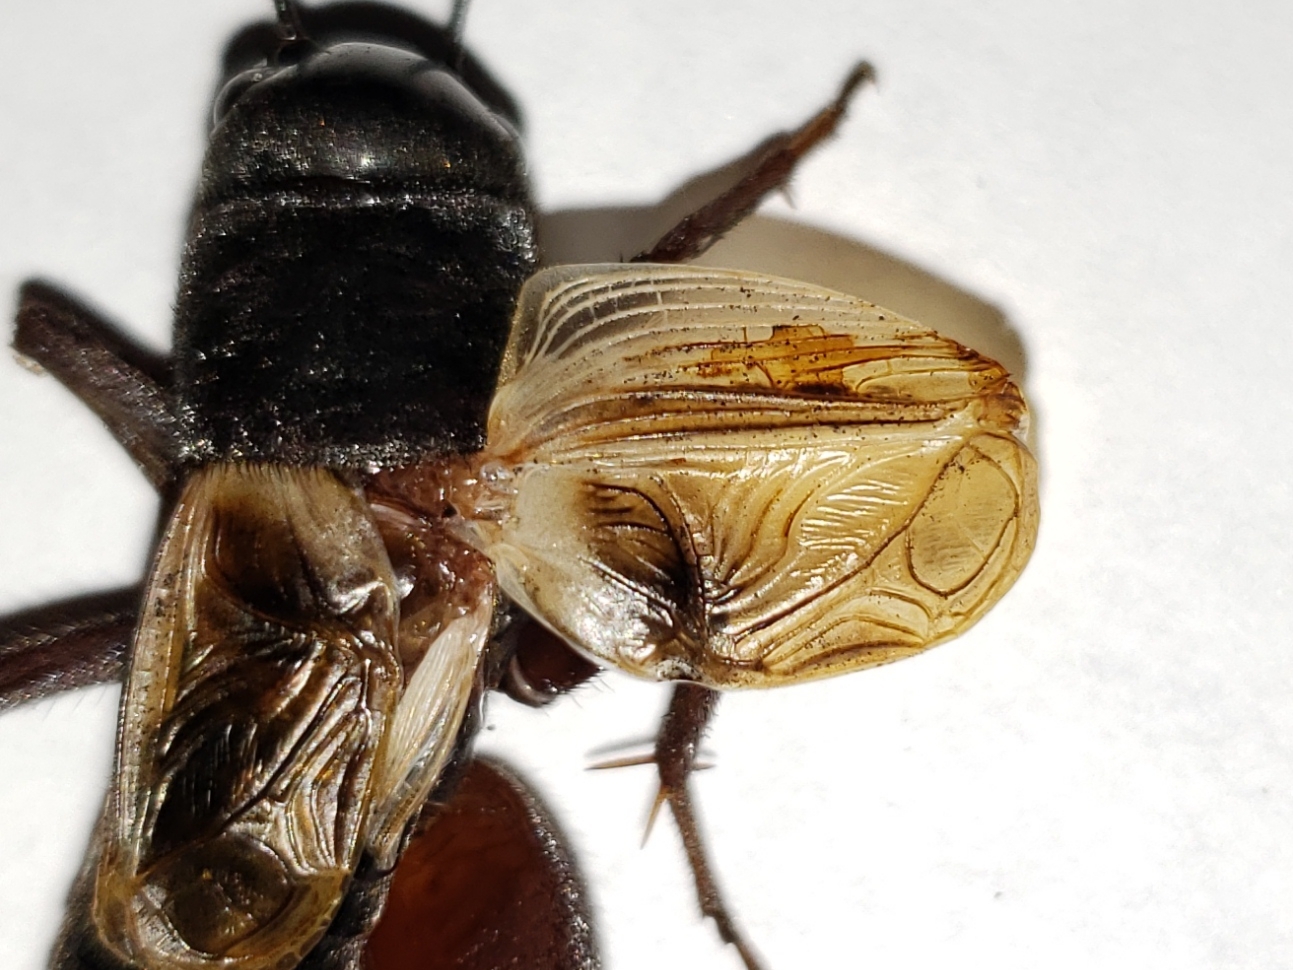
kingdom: Animalia
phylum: Arthropoda
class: Insecta
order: Orthoptera
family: Gryllidae
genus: Gryllus
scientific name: Gryllus fultoni
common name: Southern wood cricket
